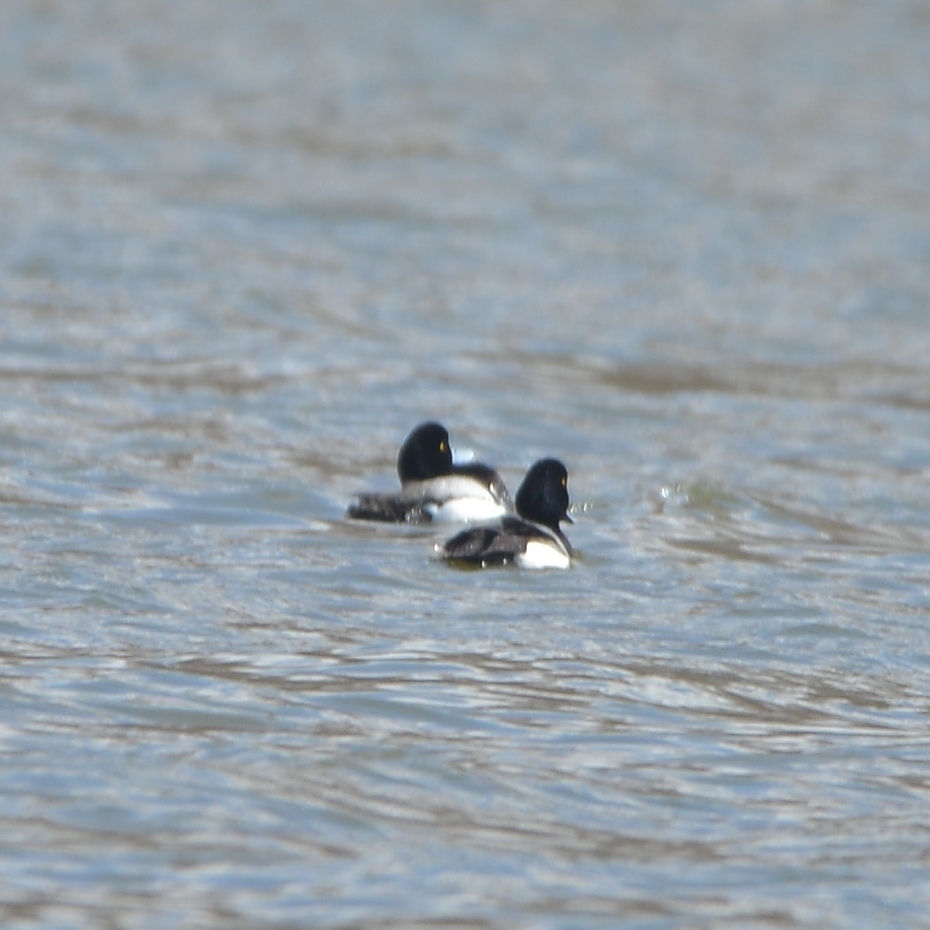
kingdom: Animalia
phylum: Chordata
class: Aves
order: Anseriformes
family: Anatidae
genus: Aythya
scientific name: Aythya marila
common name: Greater scaup
